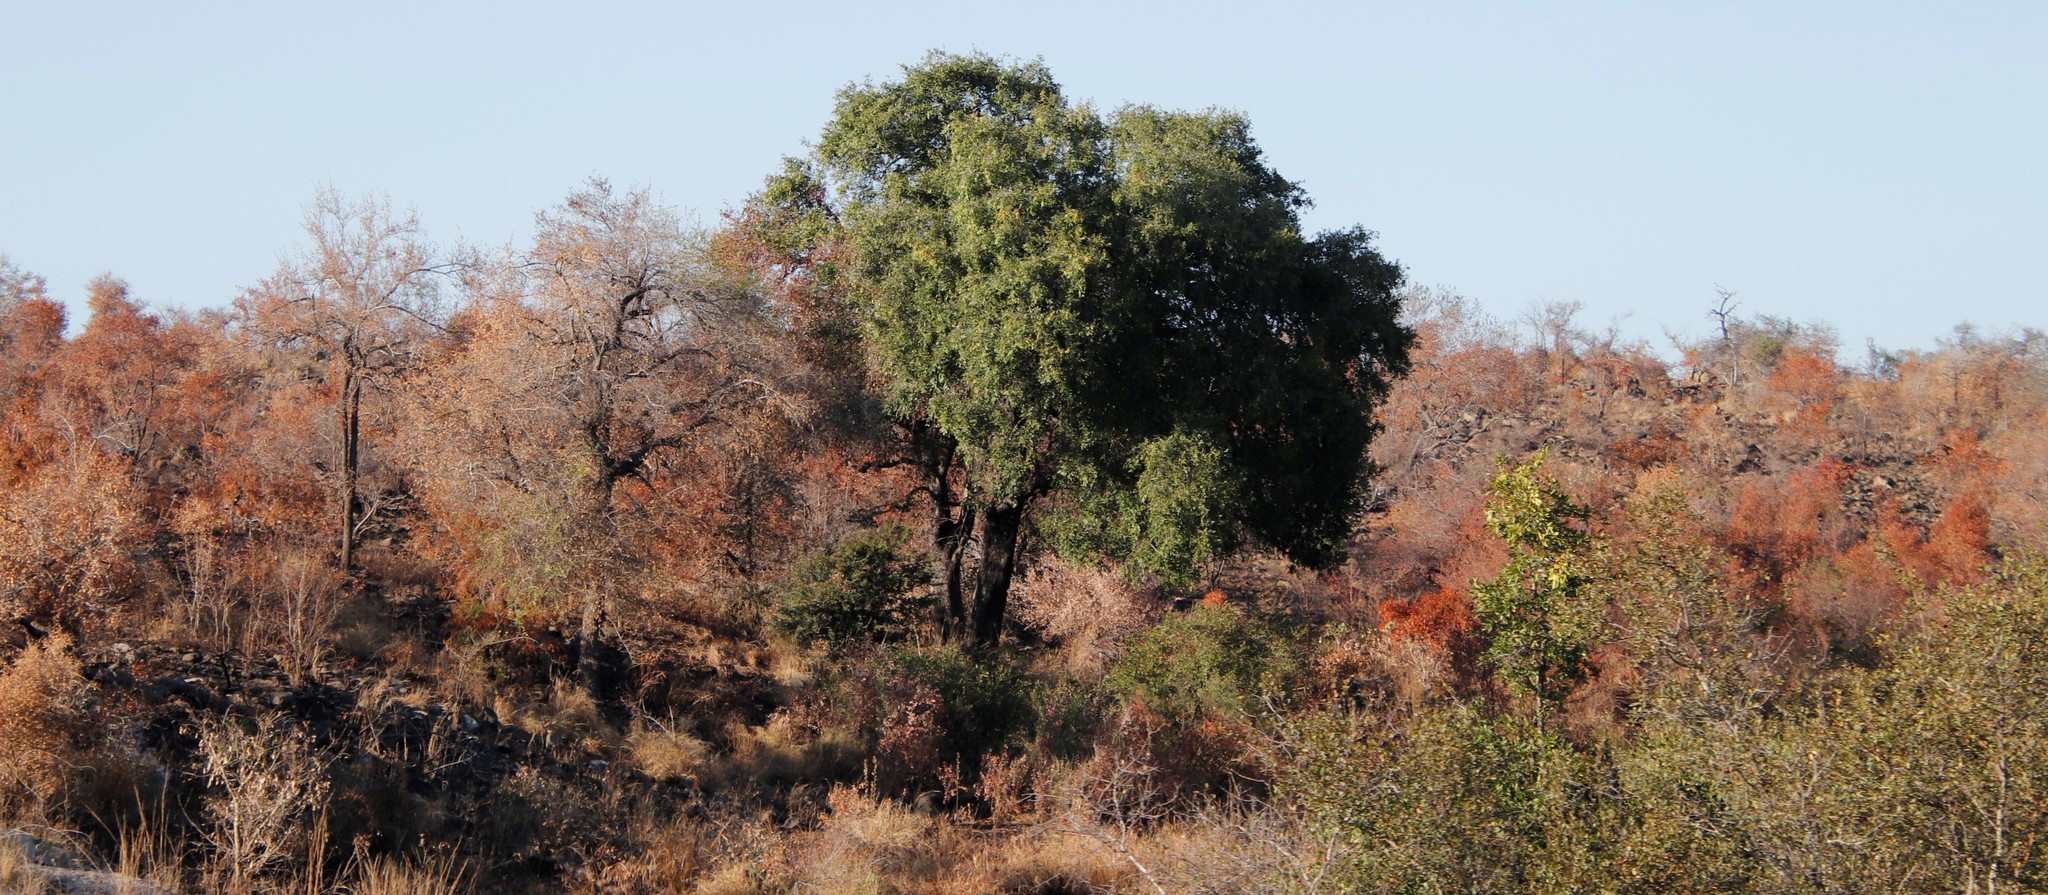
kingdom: Plantae
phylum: Tracheophyta
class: Magnoliopsida
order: Ericales
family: Ebenaceae
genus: Diospyros
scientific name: Diospyros mespiliformis
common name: Ebony diospyros
